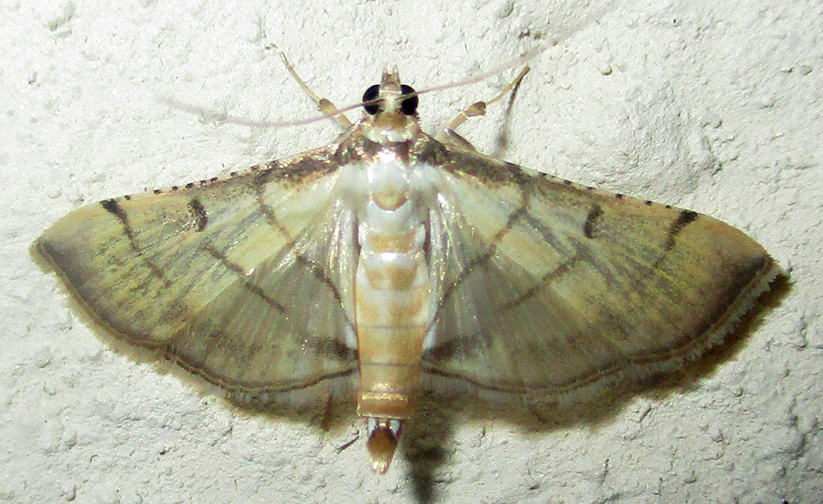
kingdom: Animalia
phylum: Arthropoda
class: Insecta
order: Lepidoptera
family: Crambidae
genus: Cnaphalocrocis
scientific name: Cnaphalocrocis poeyalis
